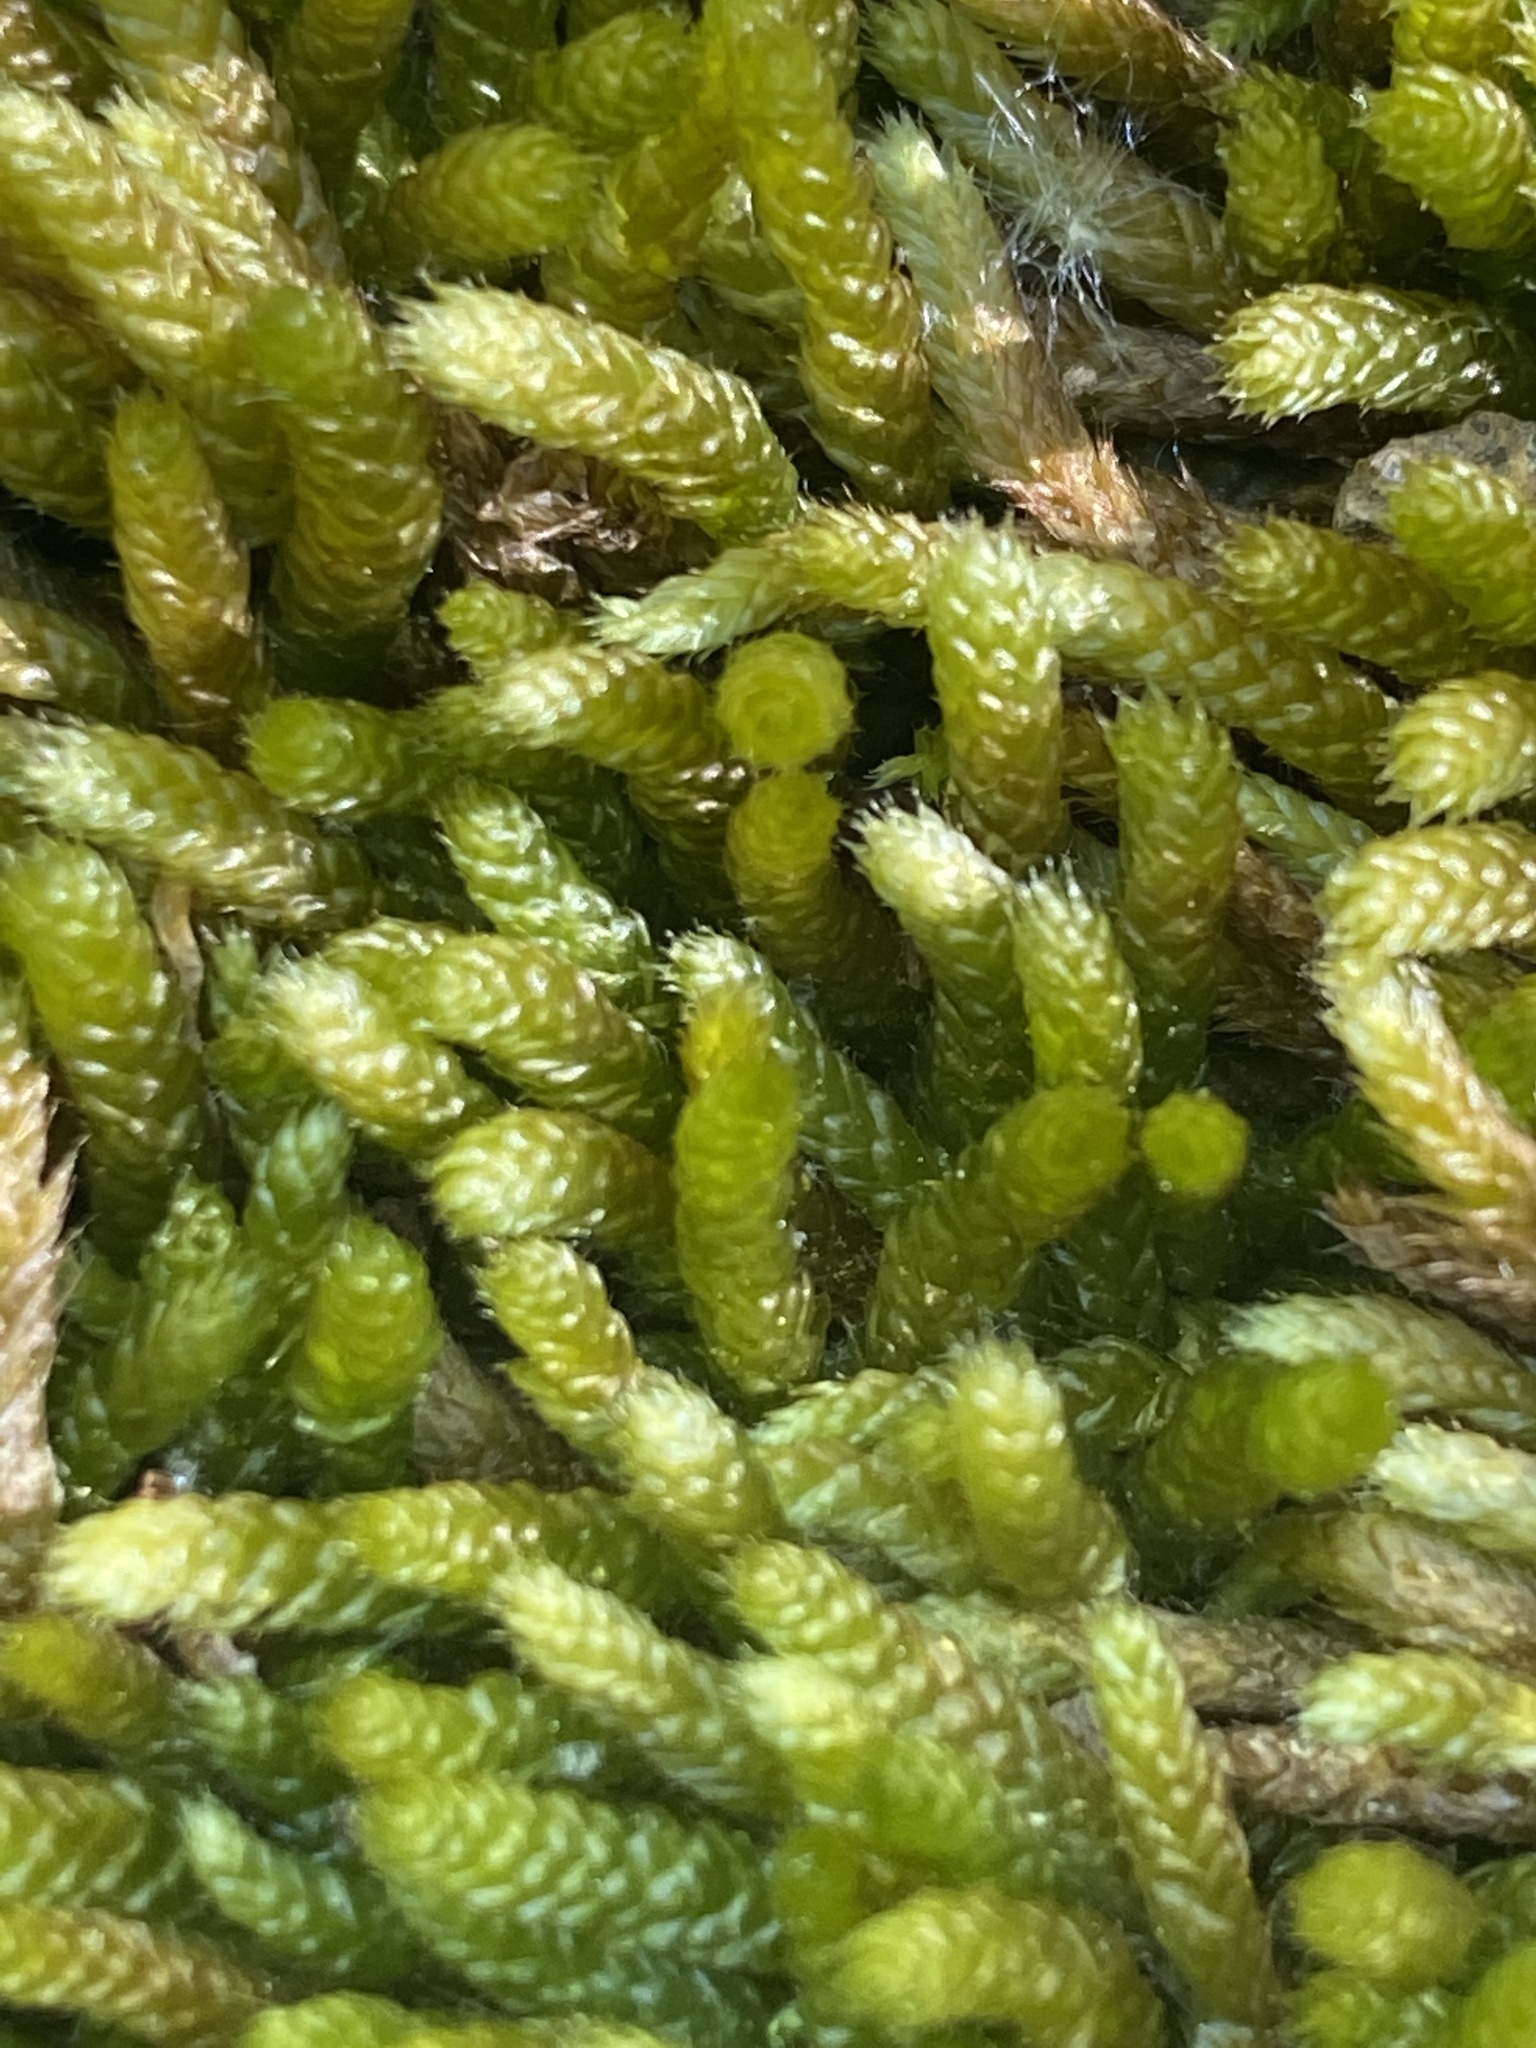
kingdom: Plantae
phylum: Bryophyta
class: Bryopsida
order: Hypnales
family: Brachytheciaceae
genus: Bryoandersonia
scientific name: Bryoandersonia illecebra
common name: Spoon-leaved moss
